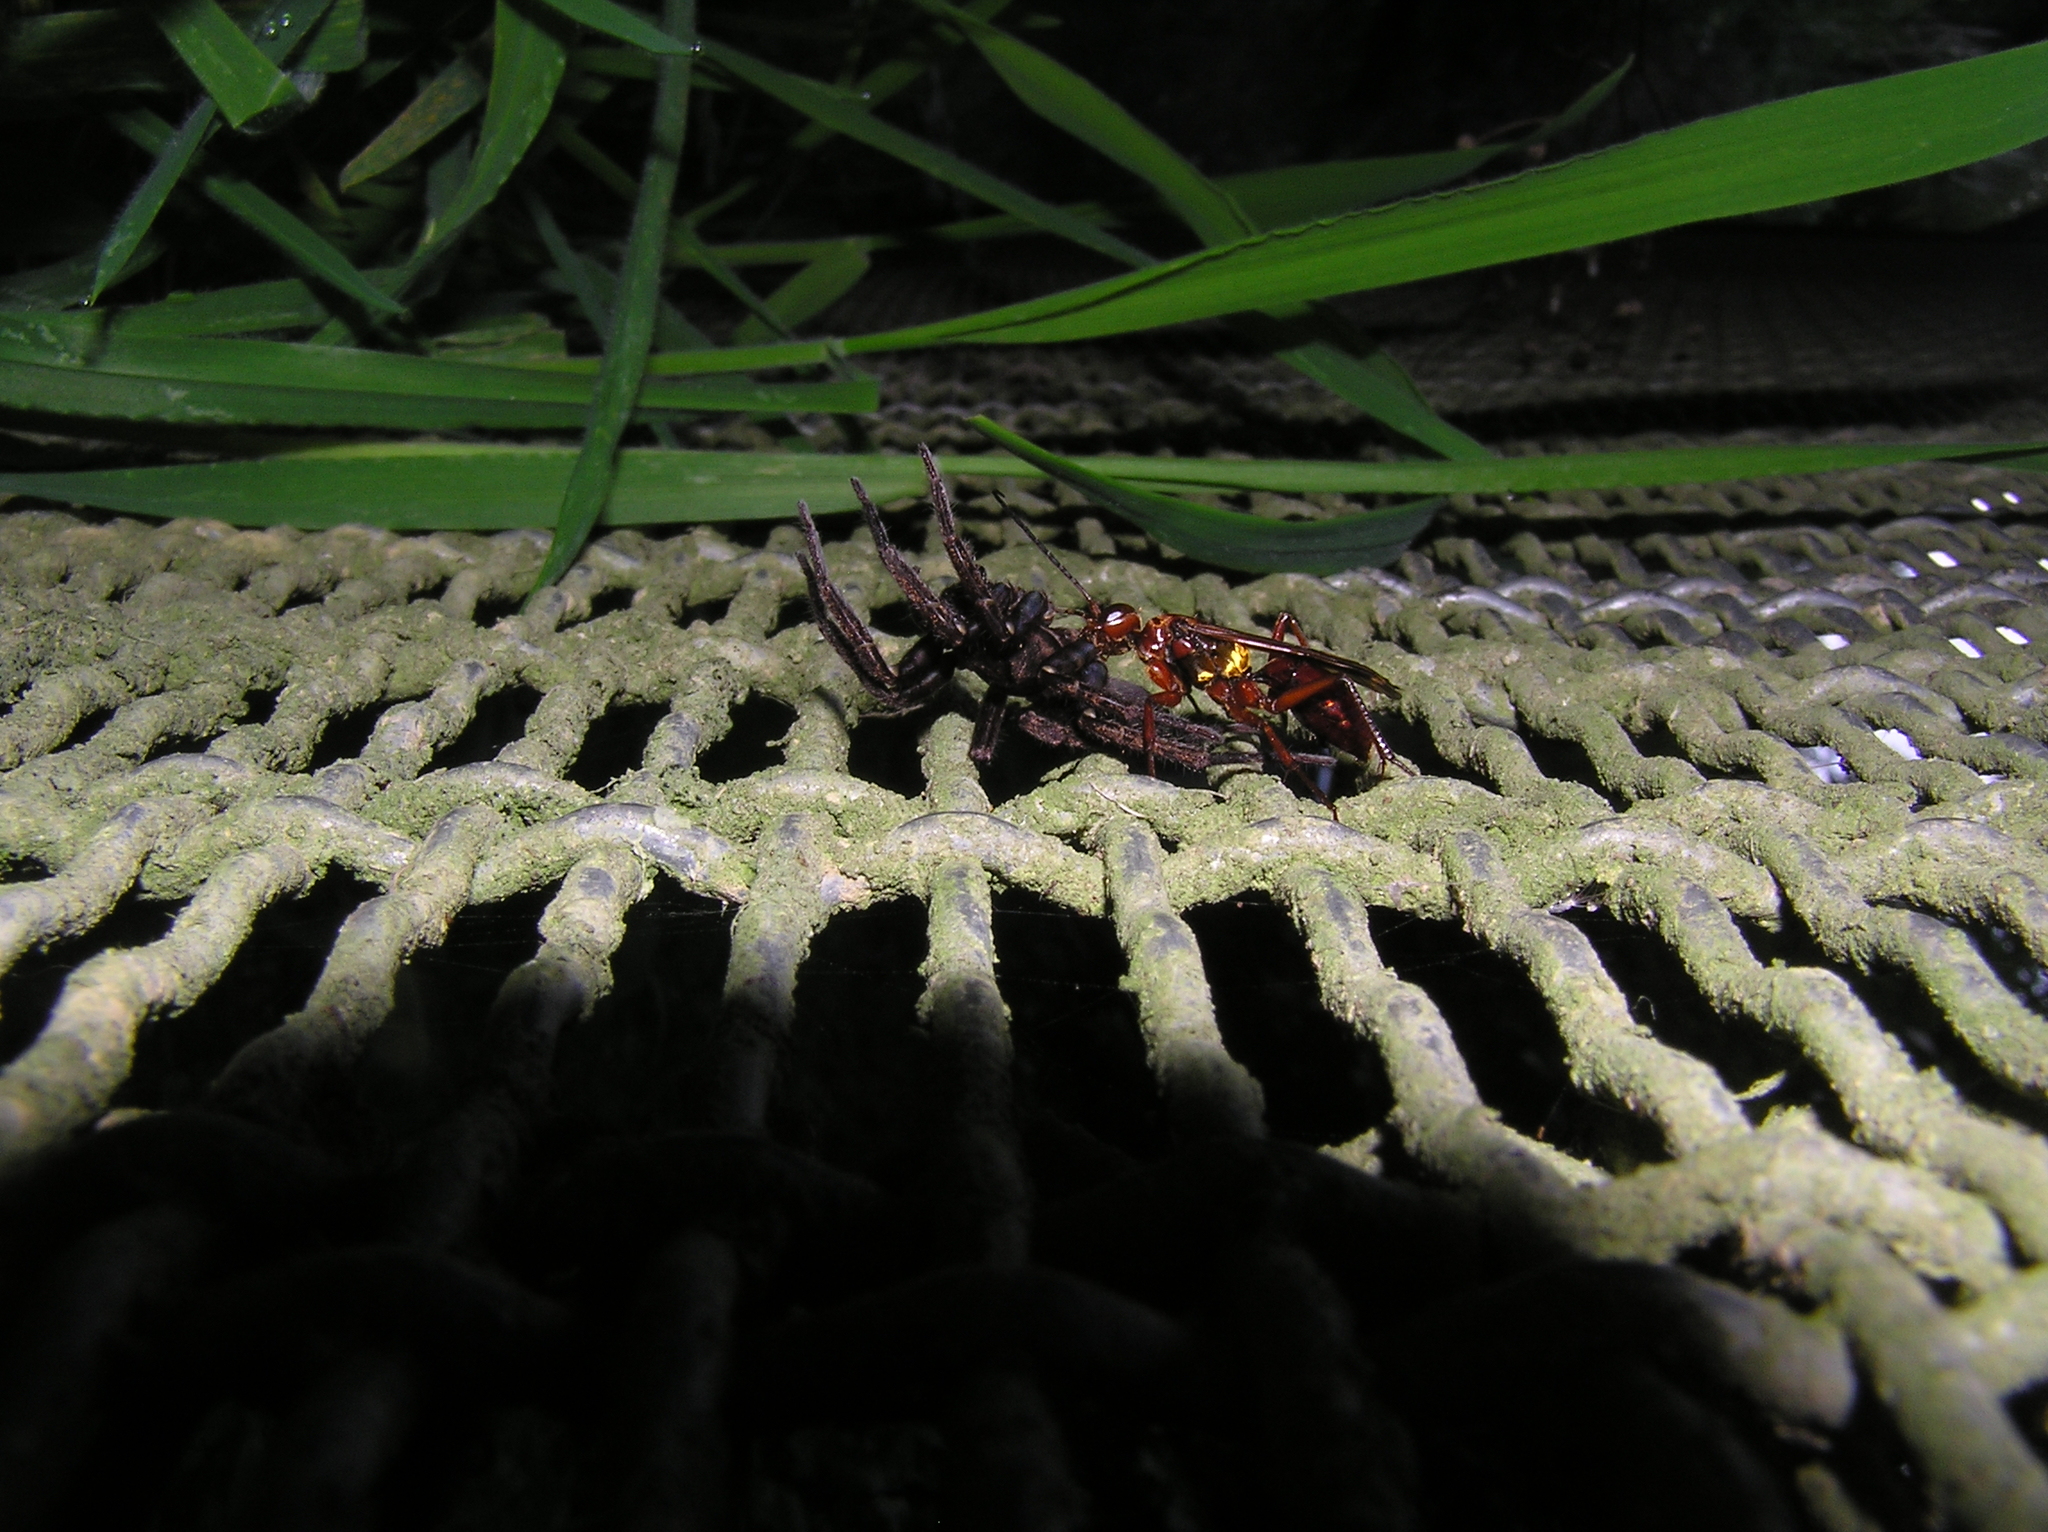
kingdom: Animalia
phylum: Arthropoda
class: Insecta
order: Hymenoptera
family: Pompilidae
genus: Sphictostethus
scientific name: Sphictostethus nitidus
